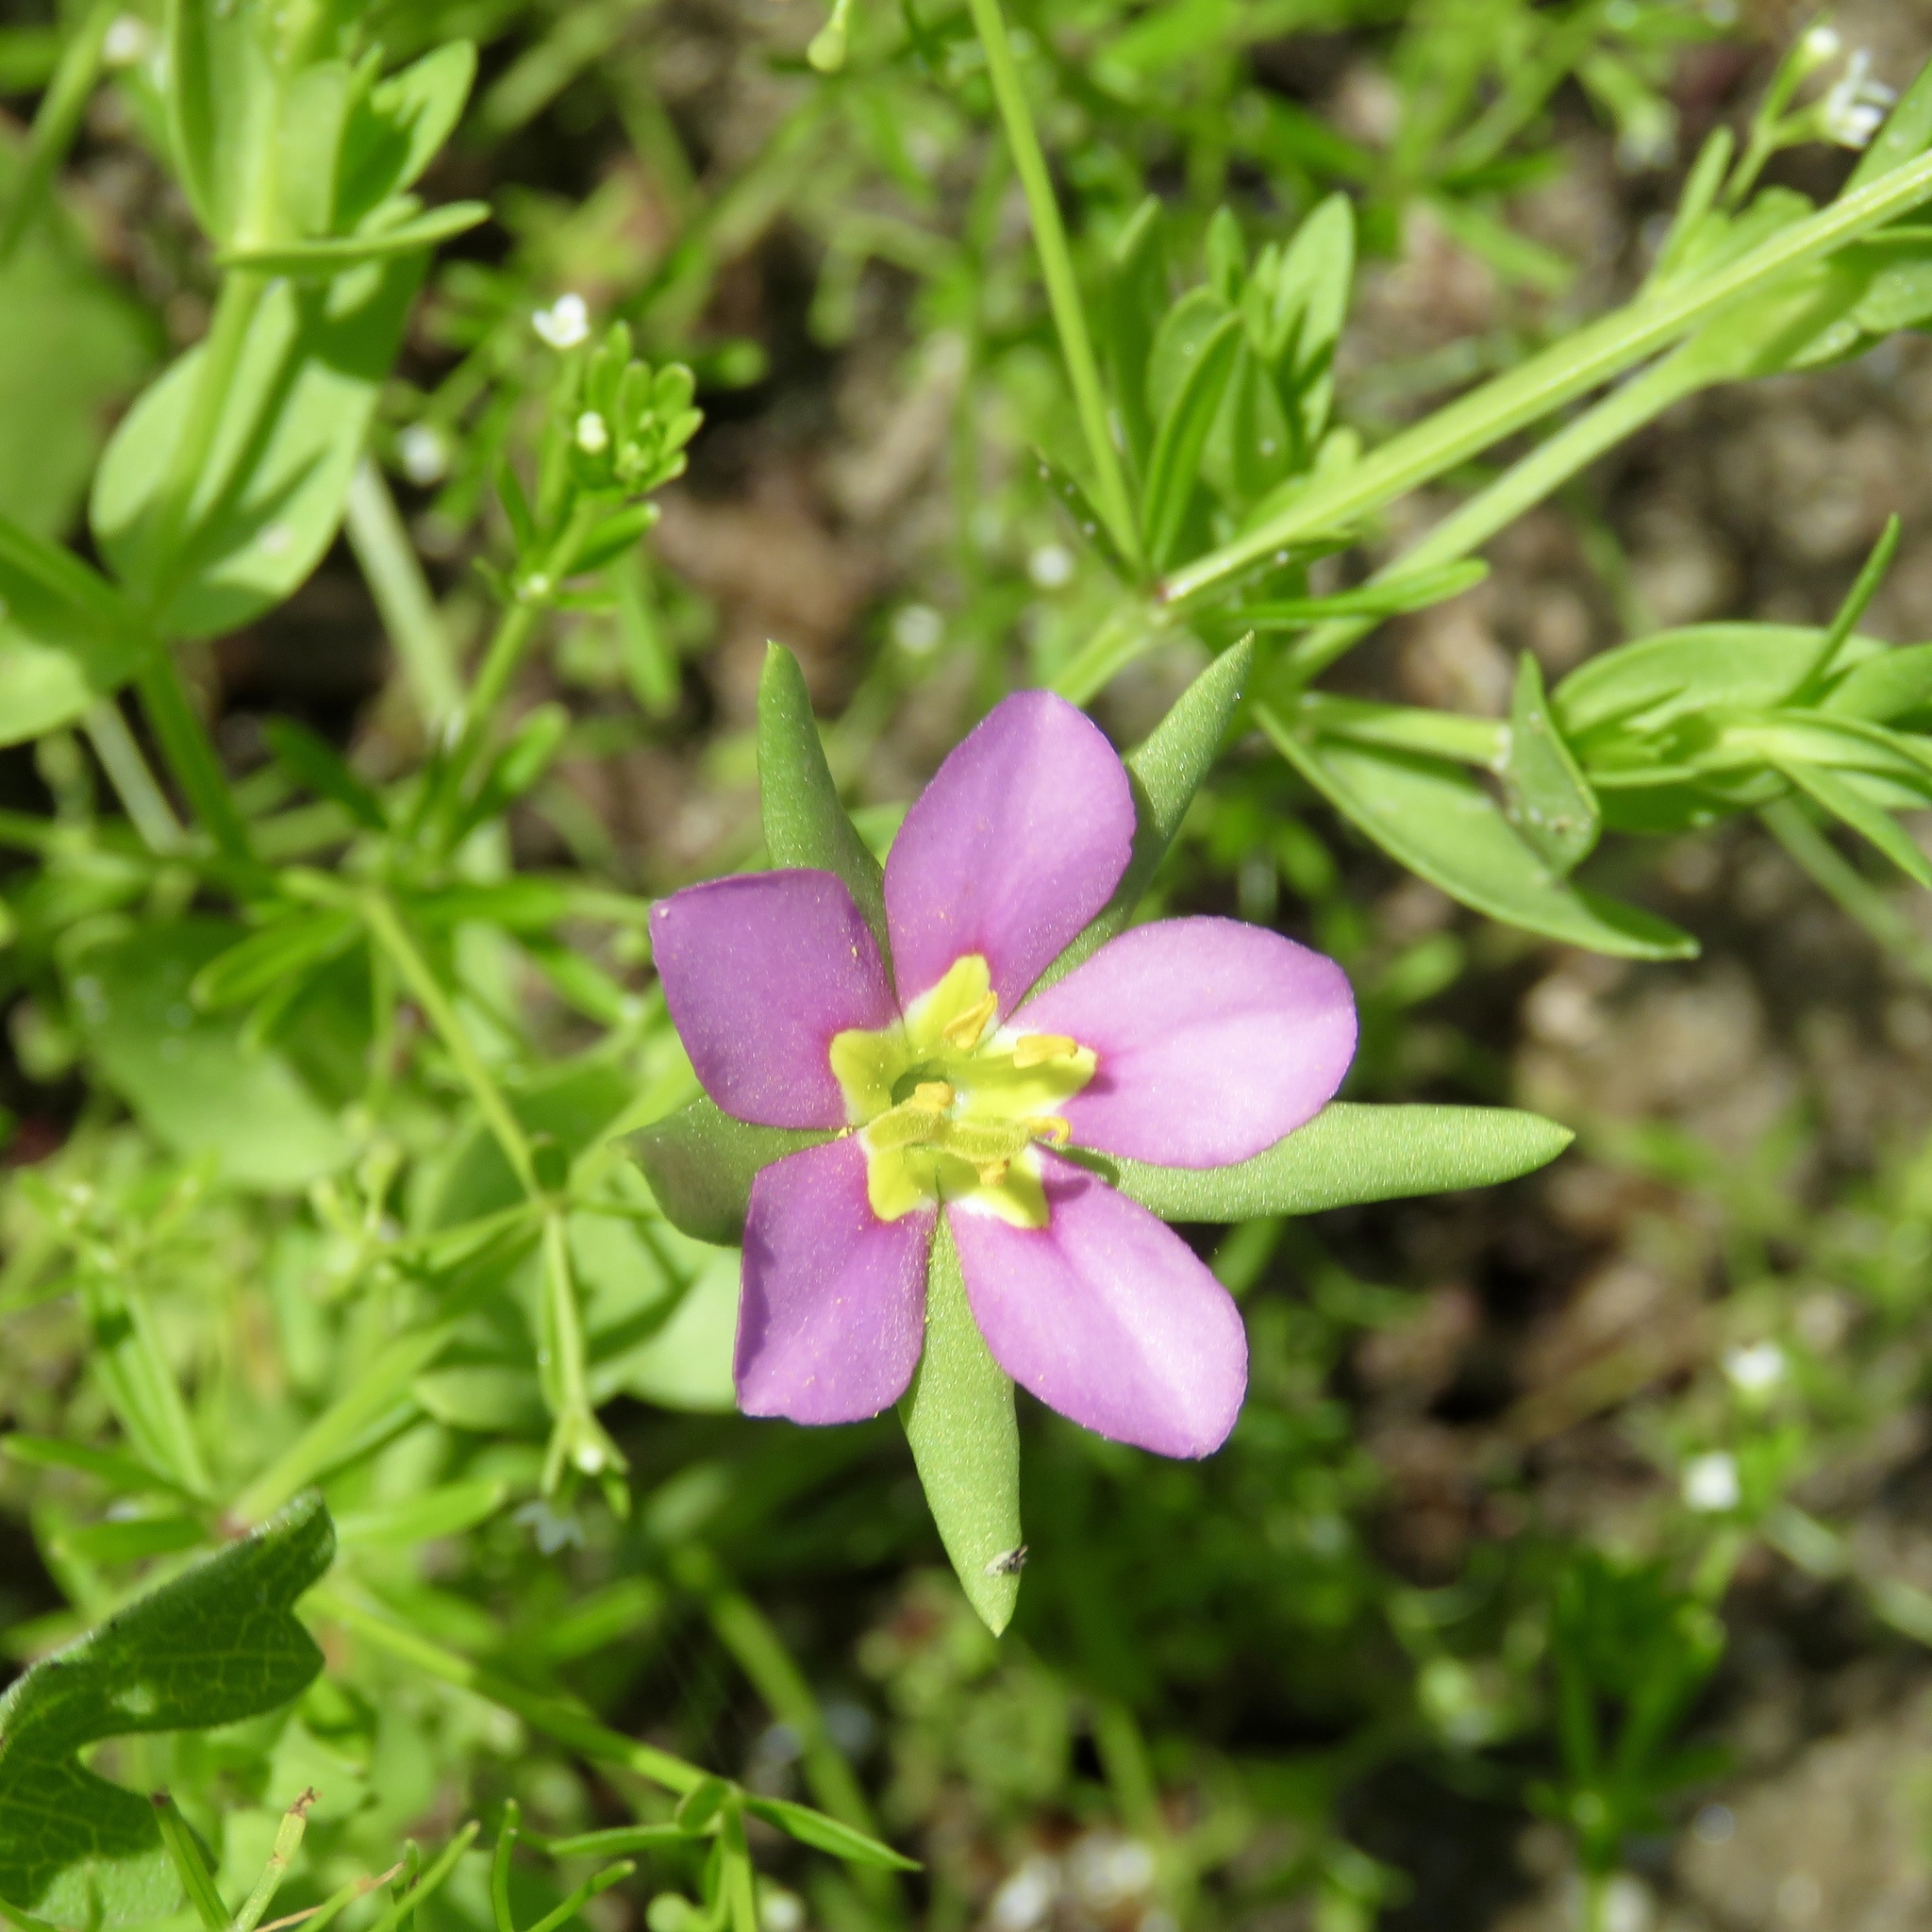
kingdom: Plantae
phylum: Tracheophyta
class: Magnoliopsida
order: Gentianales
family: Gentianaceae
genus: Sabatia
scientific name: Sabatia campestris
